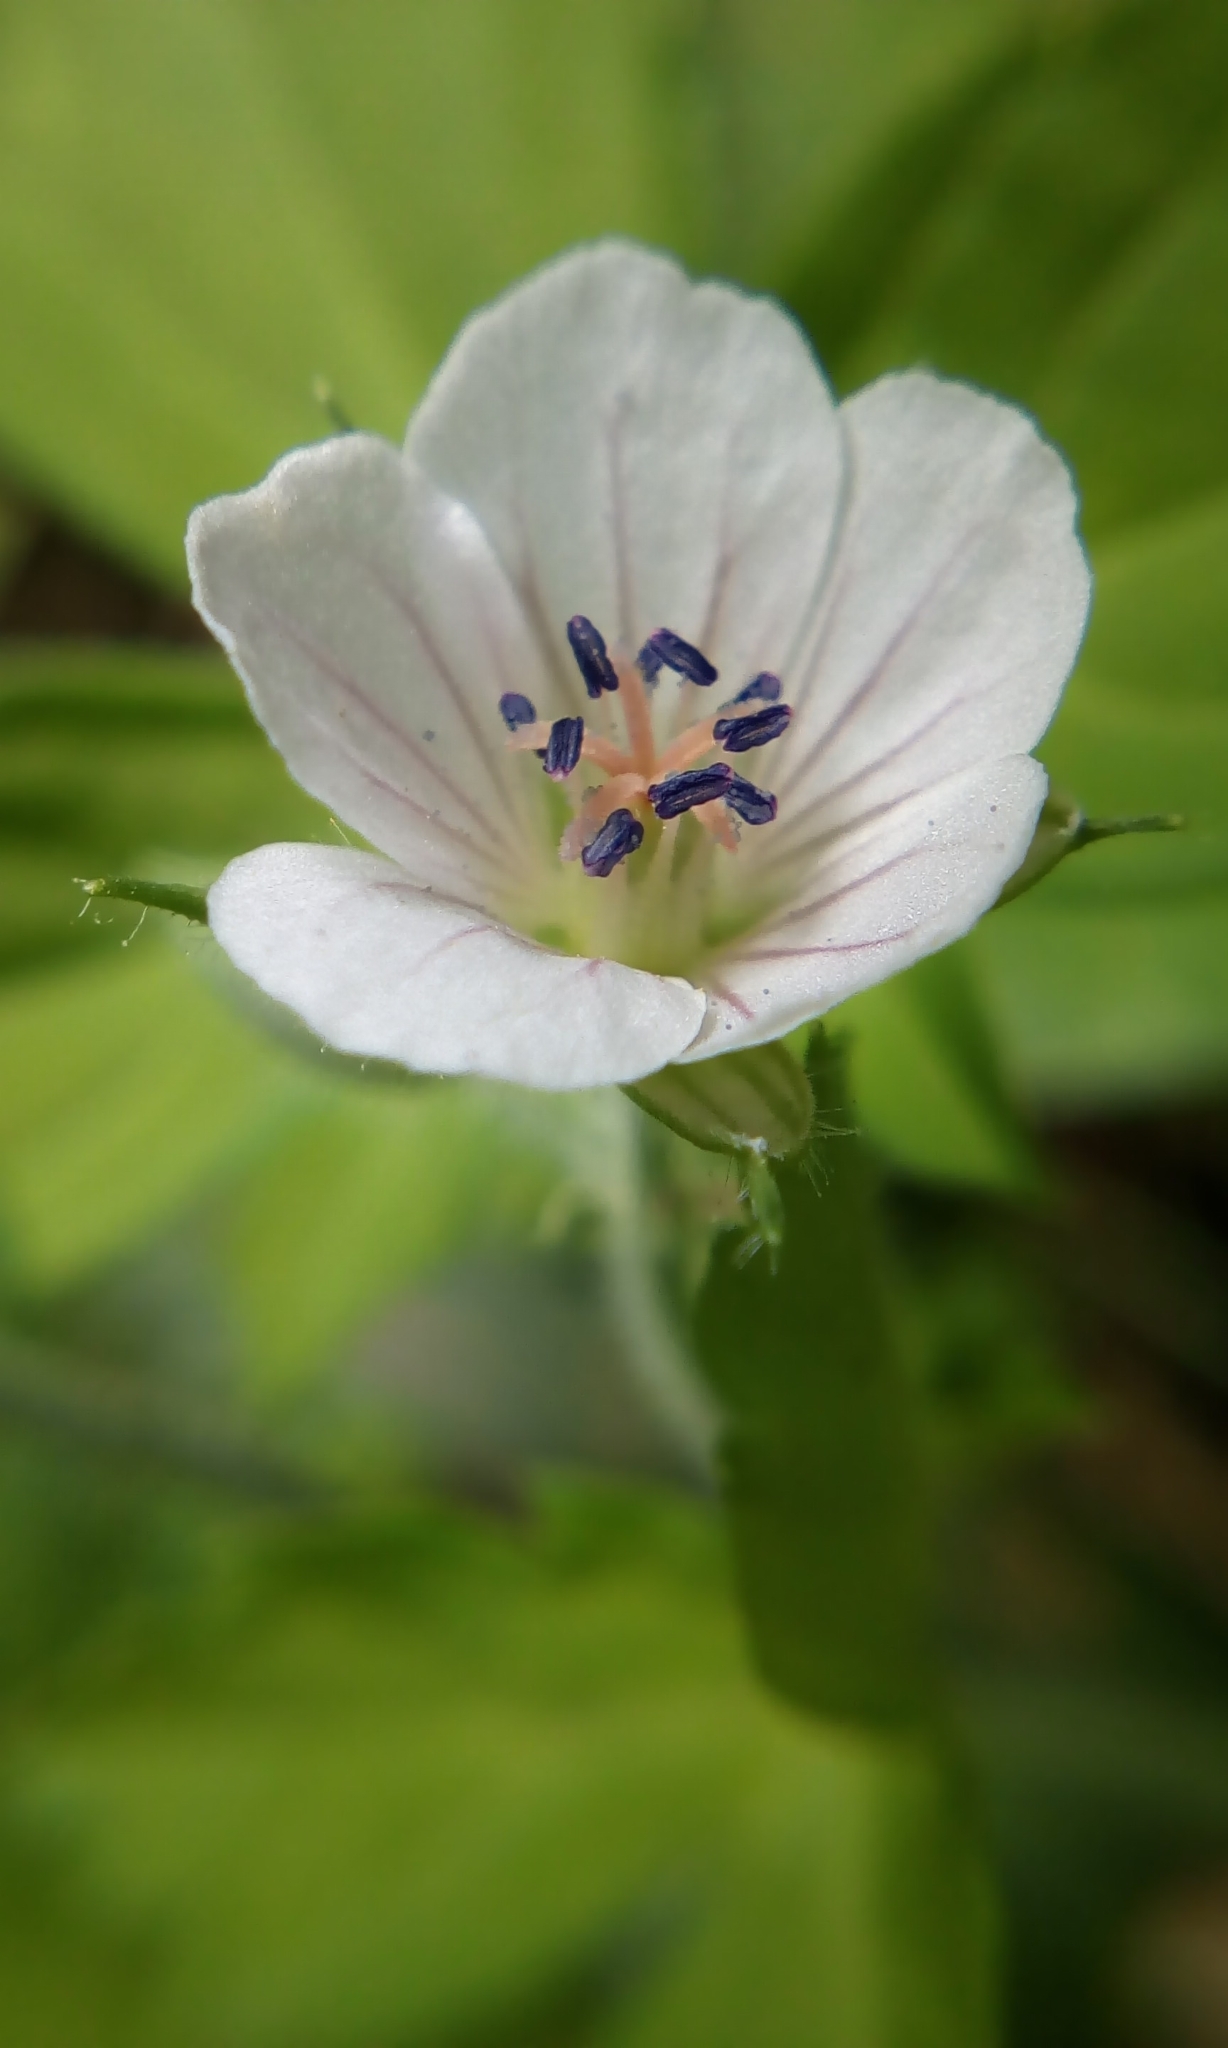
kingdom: Plantae
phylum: Tracheophyta
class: Magnoliopsida
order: Geraniales
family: Geraniaceae
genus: Geranium
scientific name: Geranium thunbergii
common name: Dewdrop crane's-bill
